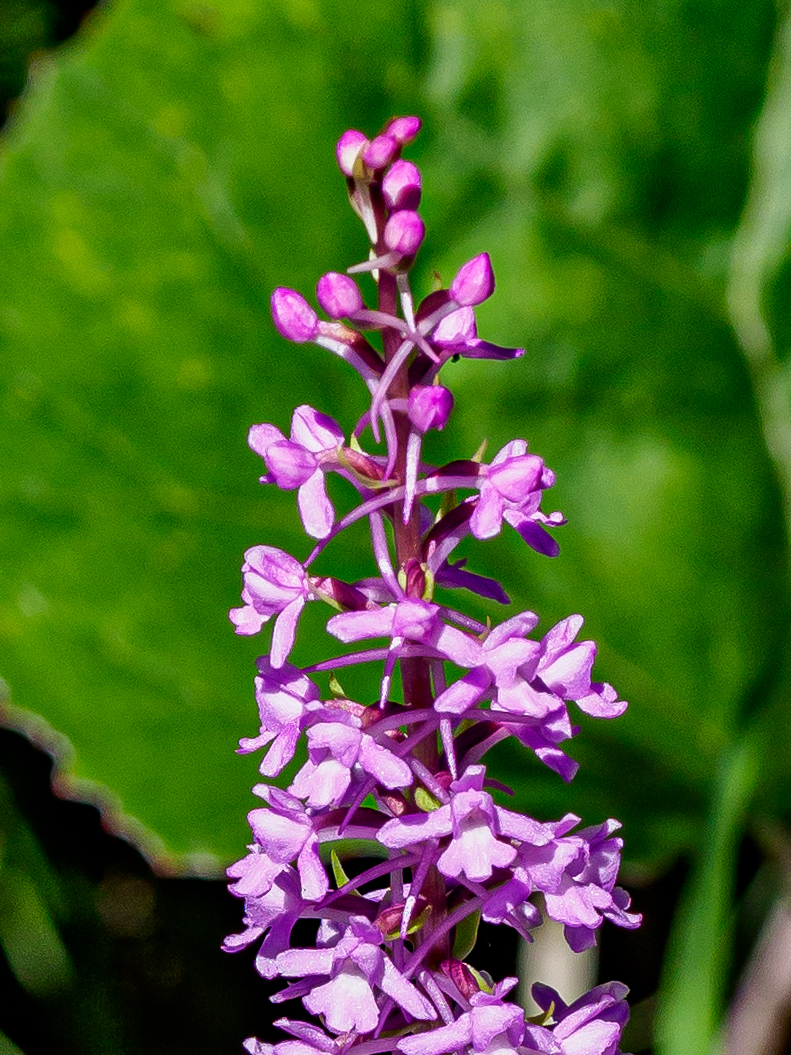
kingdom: Plantae
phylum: Tracheophyta
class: Liliopsida
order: Asparagales
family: Orchidaceae
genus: Gymnadenia
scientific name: Gymnadenia conopsea
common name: Fragrant orchid
